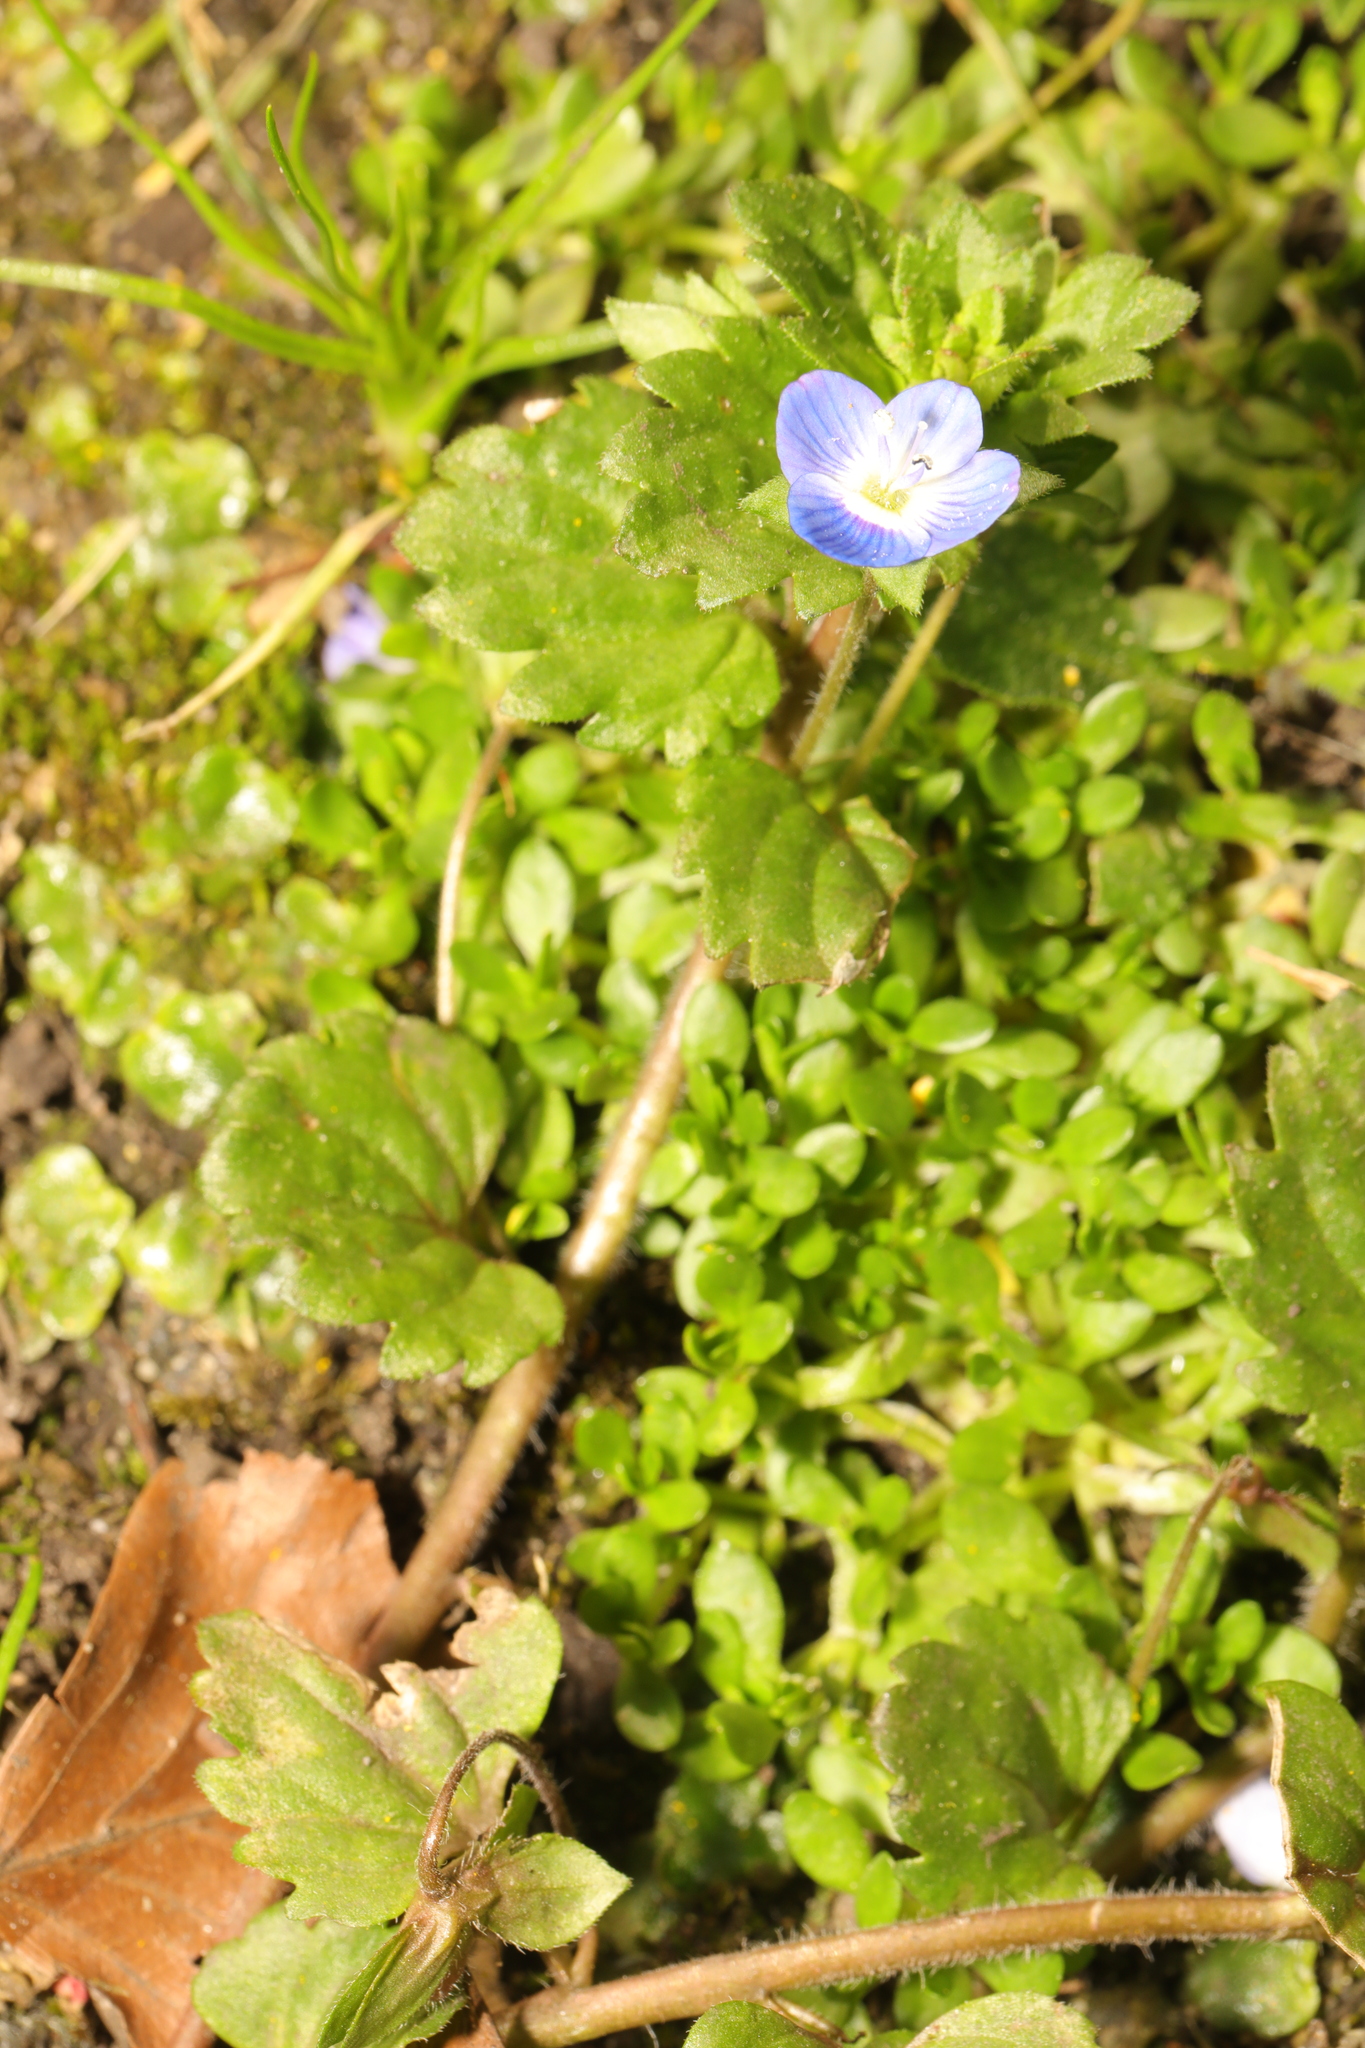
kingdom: Plantae
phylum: Tracheophyta
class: Magnoliopsida
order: Lamiales
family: Plantaginaceae
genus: Veronica
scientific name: Veronica persica
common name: Common field-speedwell
